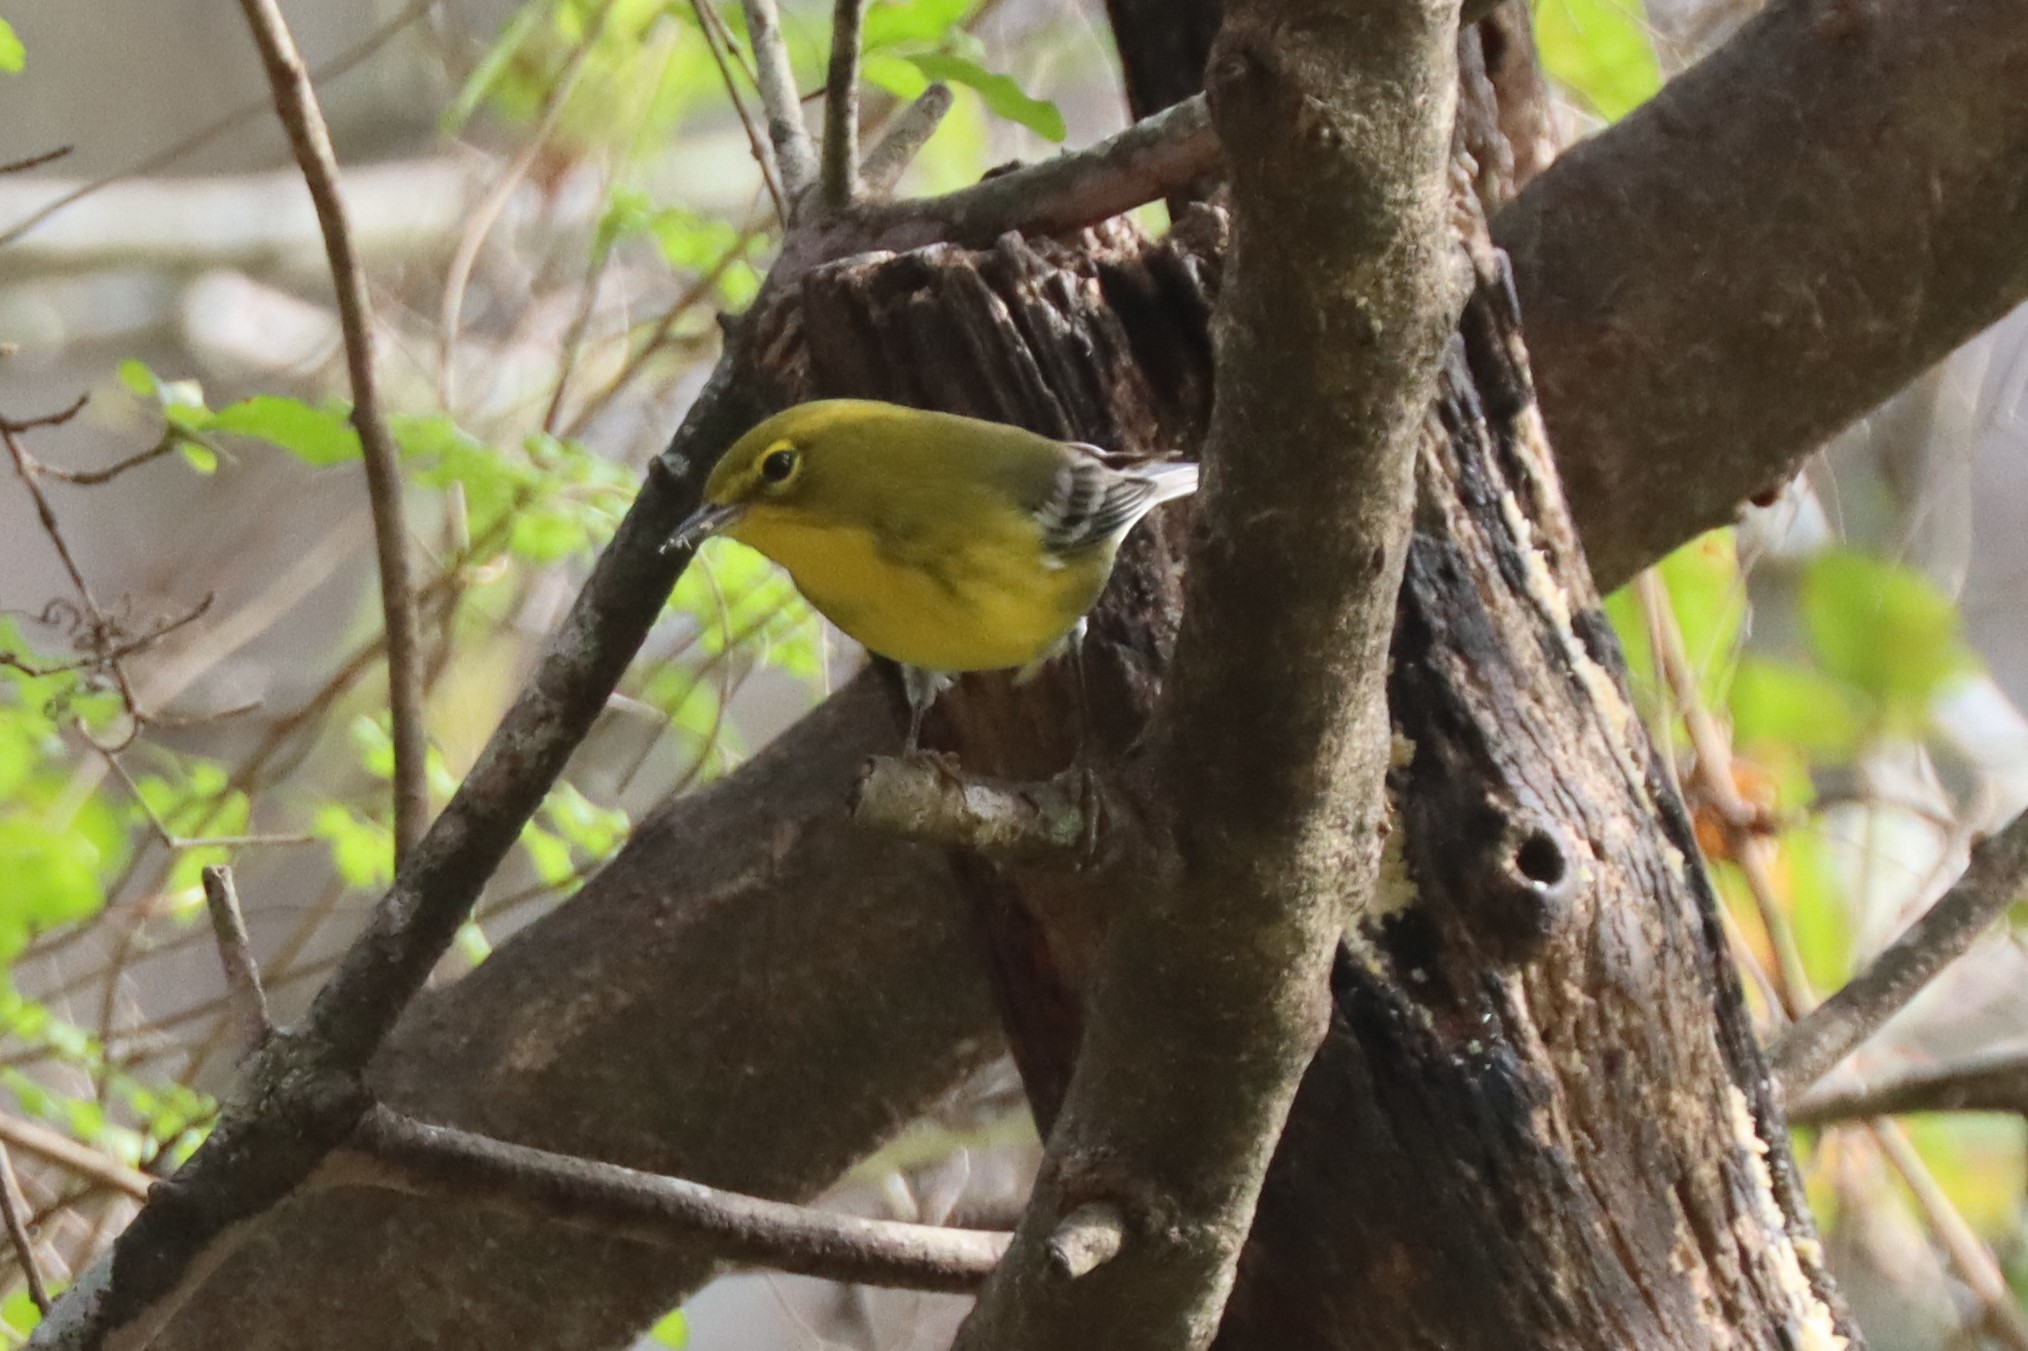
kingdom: Animalia
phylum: Chordata
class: Aves
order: Passeriformes
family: Parulidae
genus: Setophaga
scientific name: Setophaga pinus
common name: Pine warbler
